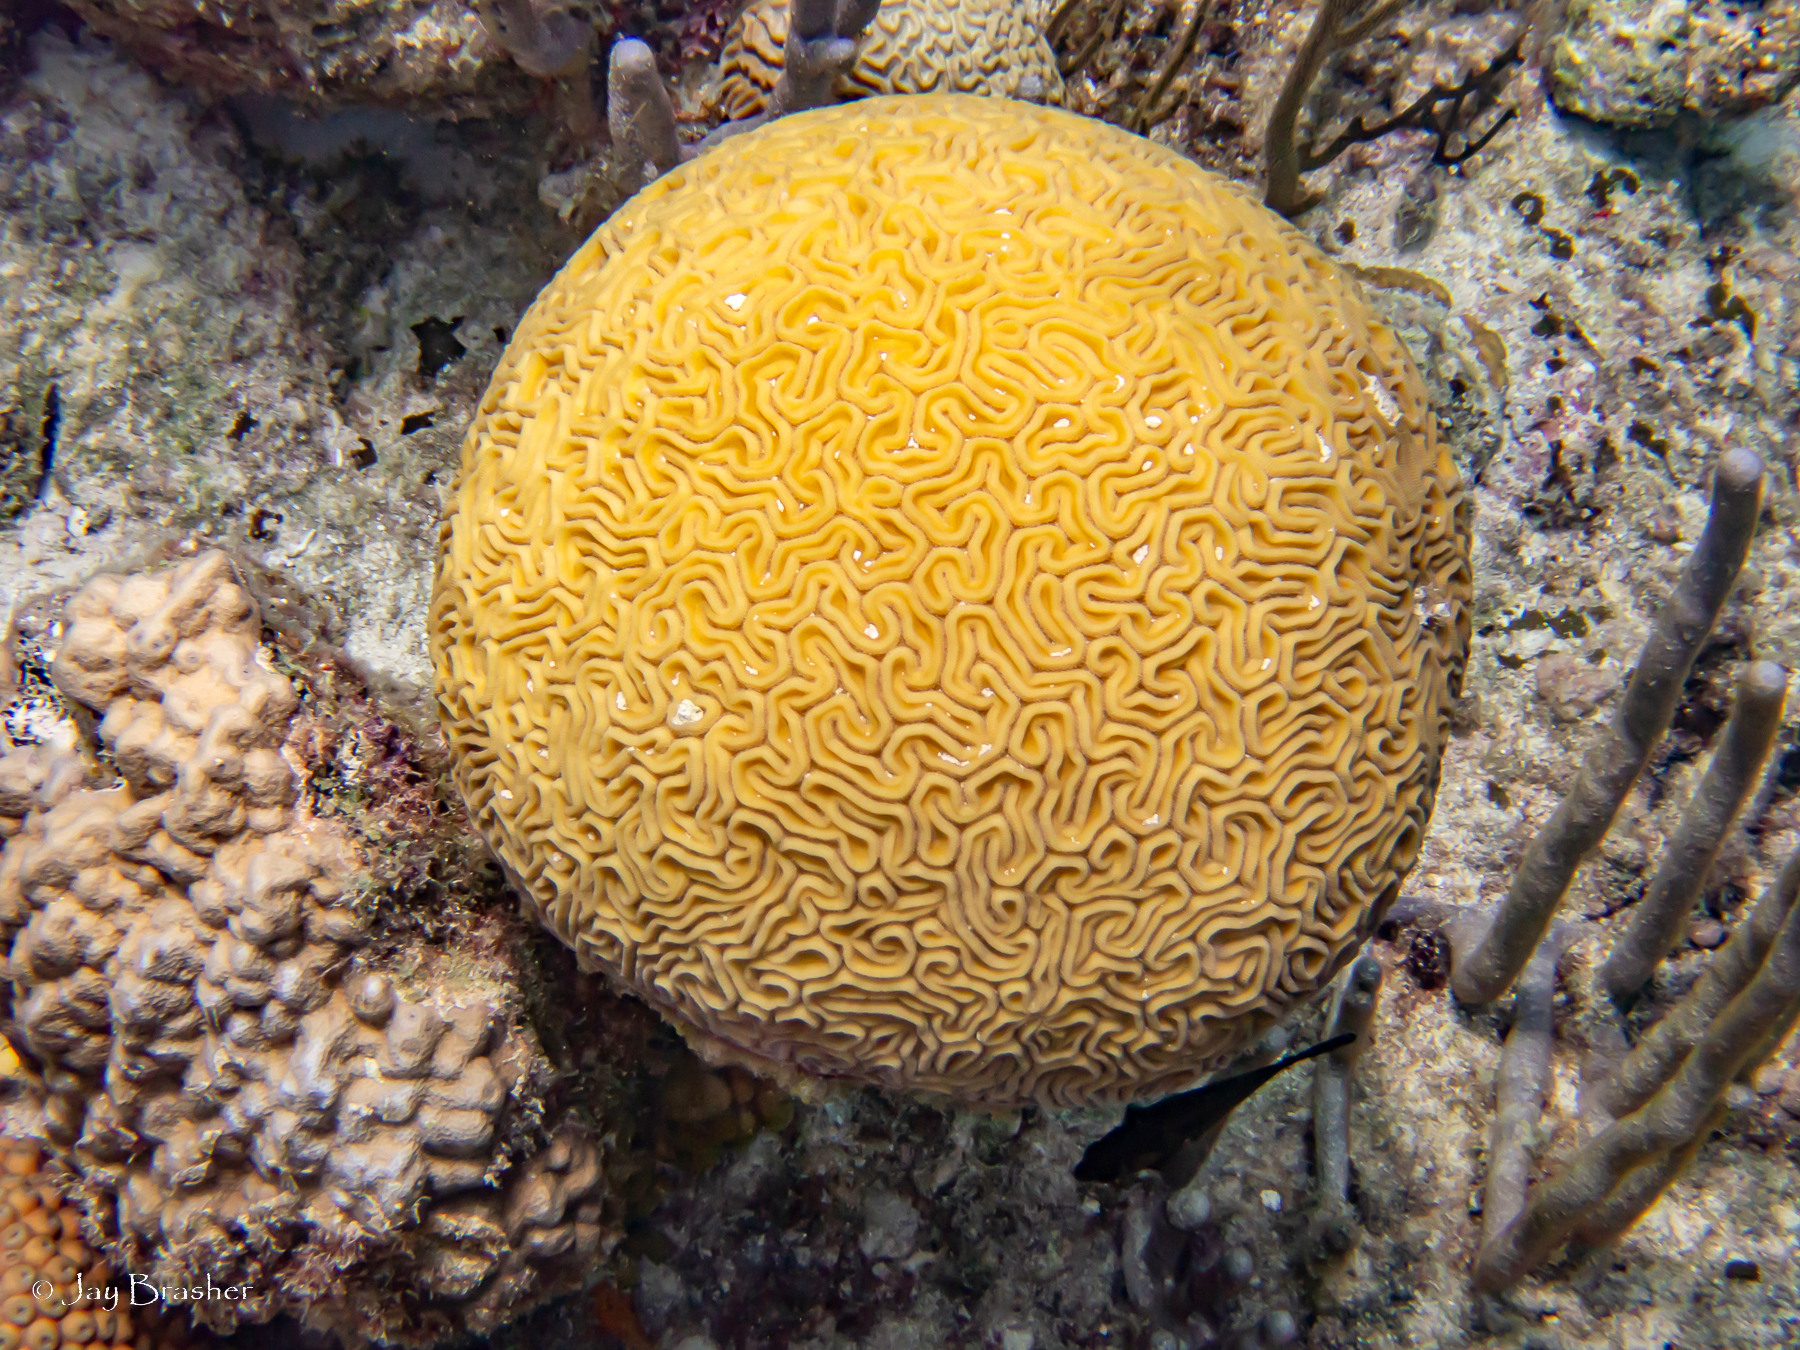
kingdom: Animalia
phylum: Cnidaria
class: Anthozoa
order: Scleractinia
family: Poritidae
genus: Porites
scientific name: Porites astreoides
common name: Mustard hill coral
